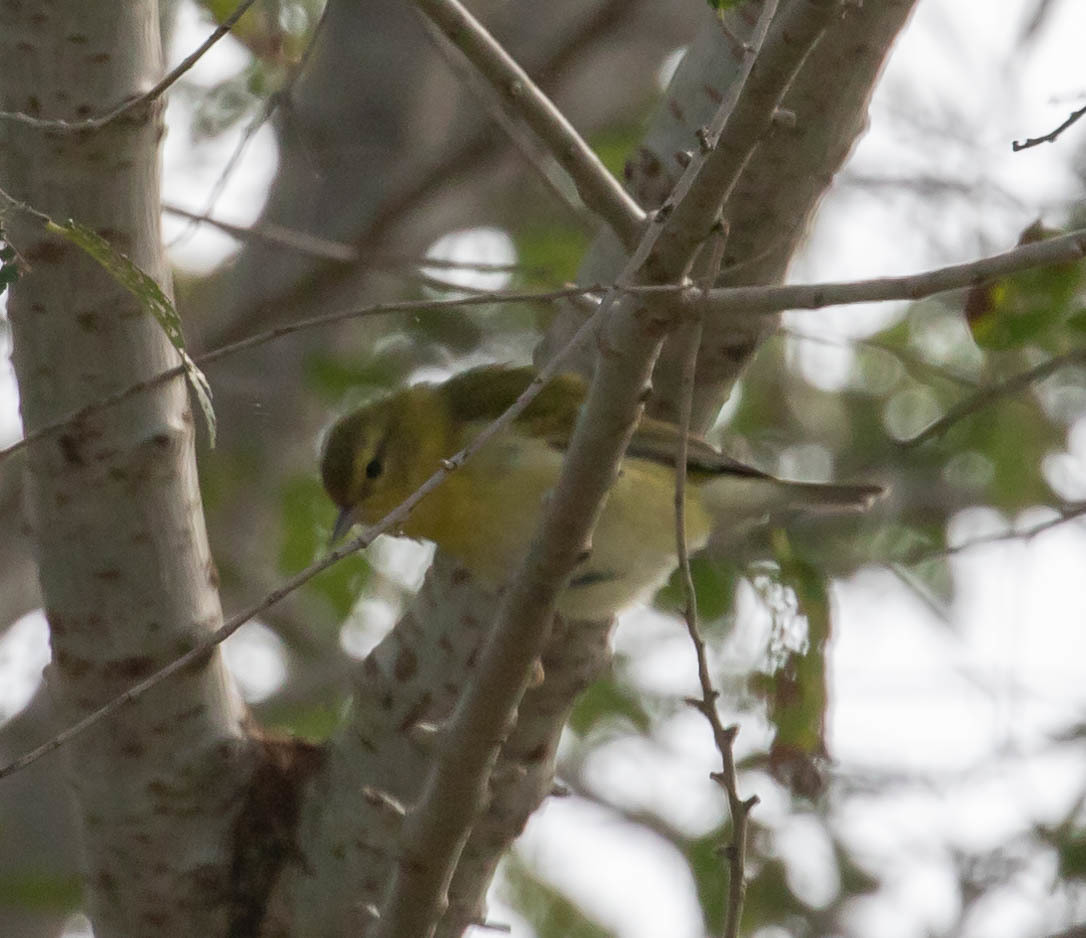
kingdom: Animalia
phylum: Chordata
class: Aves
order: Passeriformes
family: Parulidae
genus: Leiothlypis
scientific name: Leiothlypis peregrina
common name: Tennessee warbler
